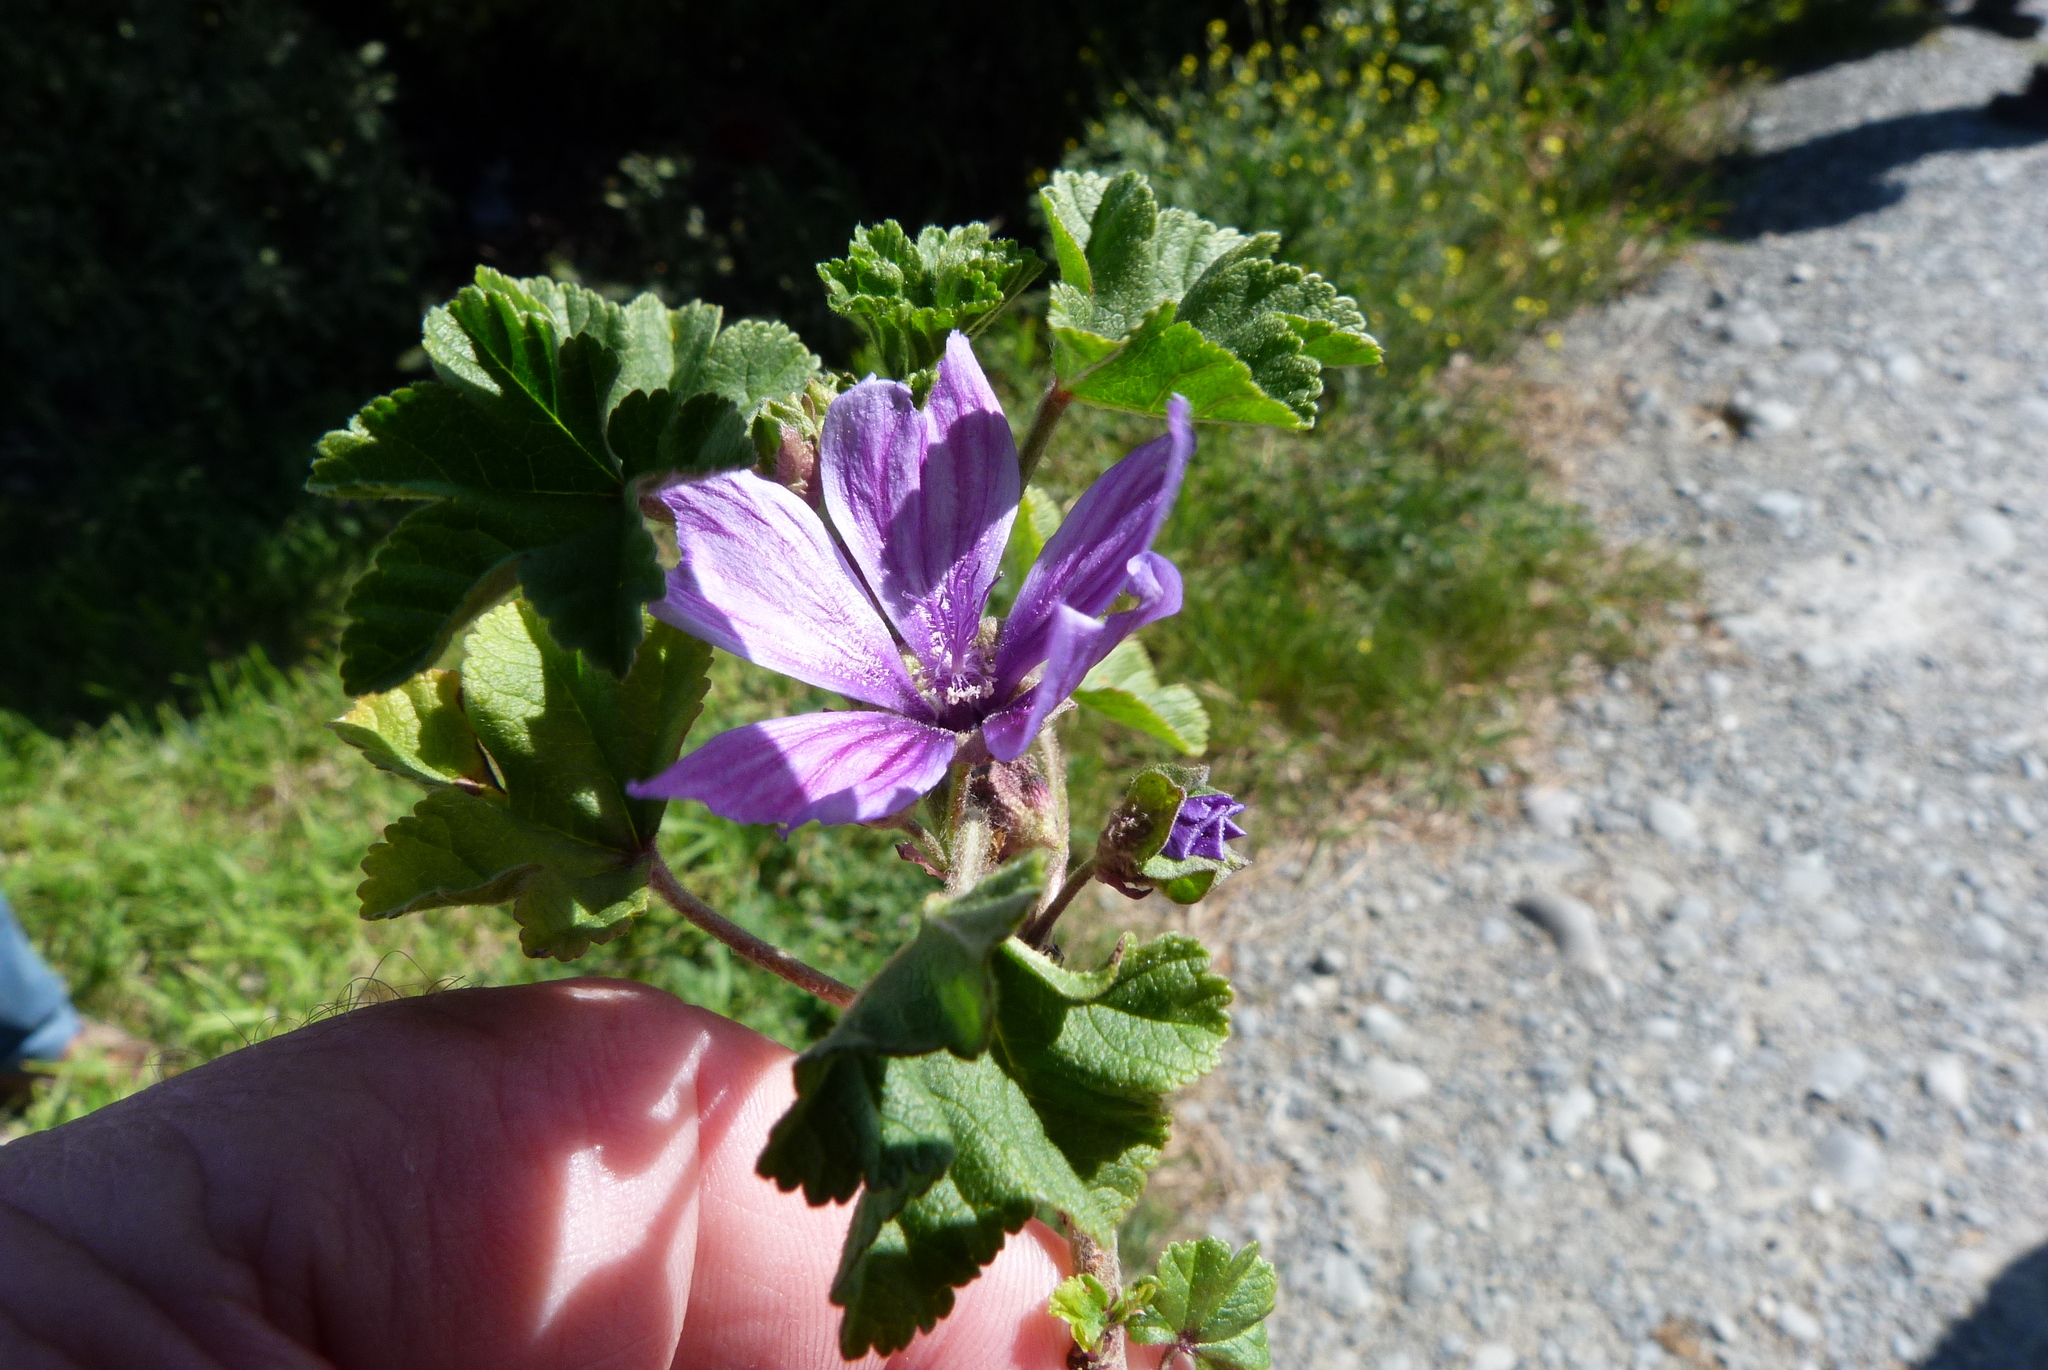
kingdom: Plantae
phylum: Tracheophyta
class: Magnoliopsida
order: Malvales
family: Malvaceae
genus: Malva
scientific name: Malva sylvestris
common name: Common mallow
